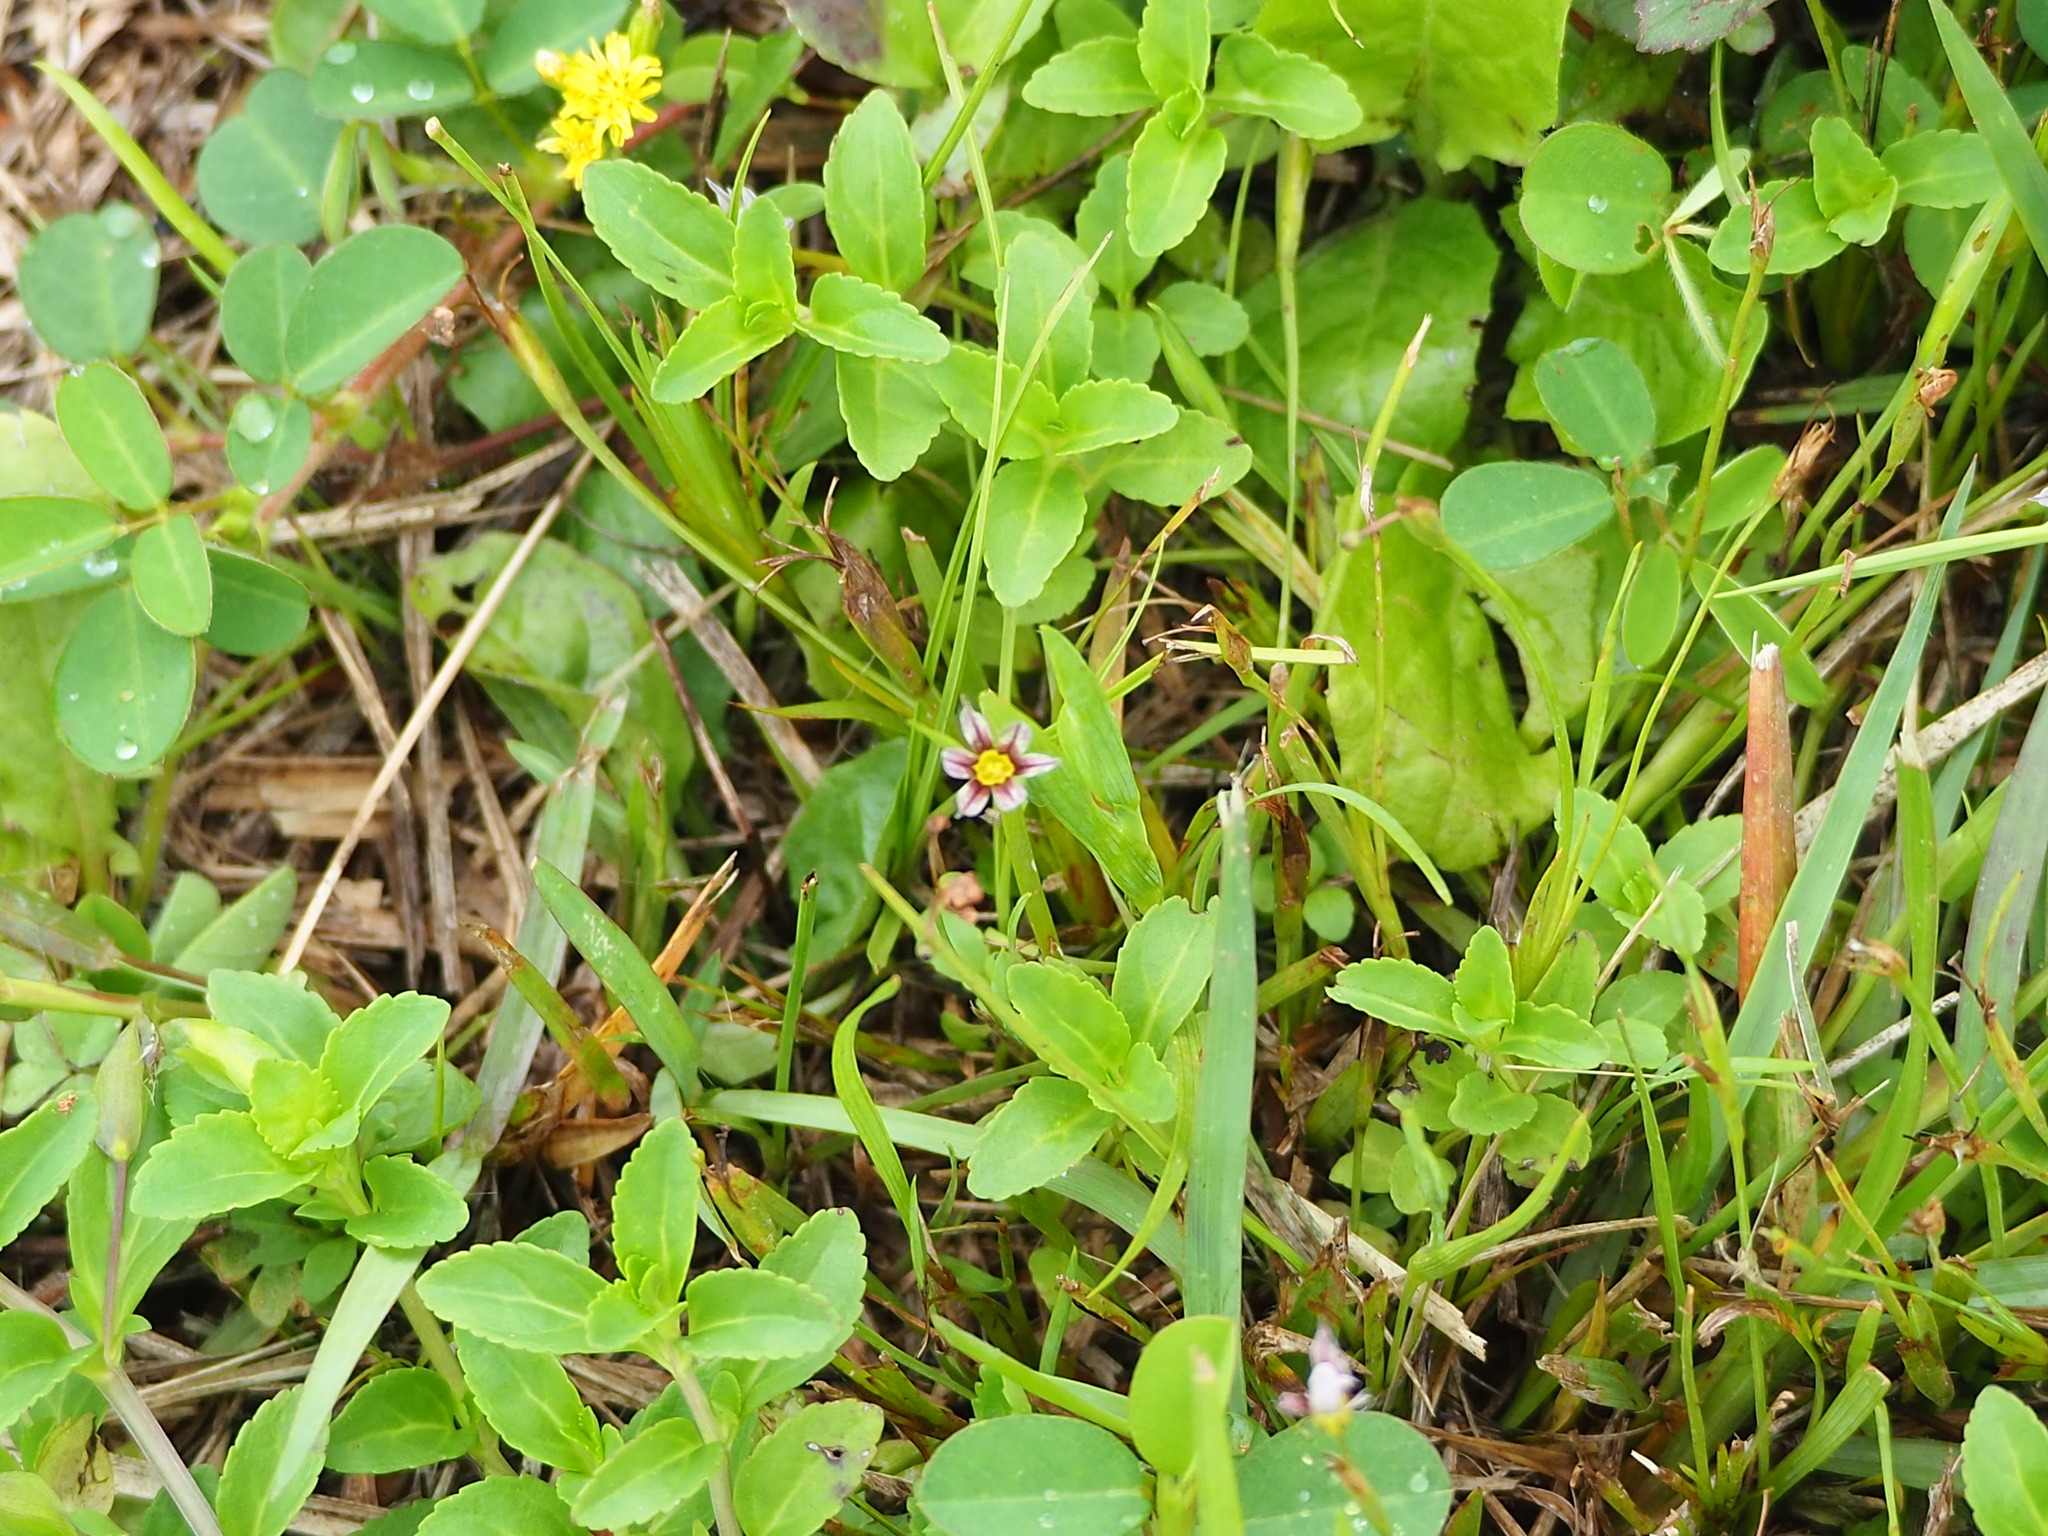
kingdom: Plantae
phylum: Tracheophyta
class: Liliopsida
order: Asparagales
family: Iridaceae
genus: Sisyrinchium
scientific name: Sisyrinchium micranthum
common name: Bermuda pigroot
